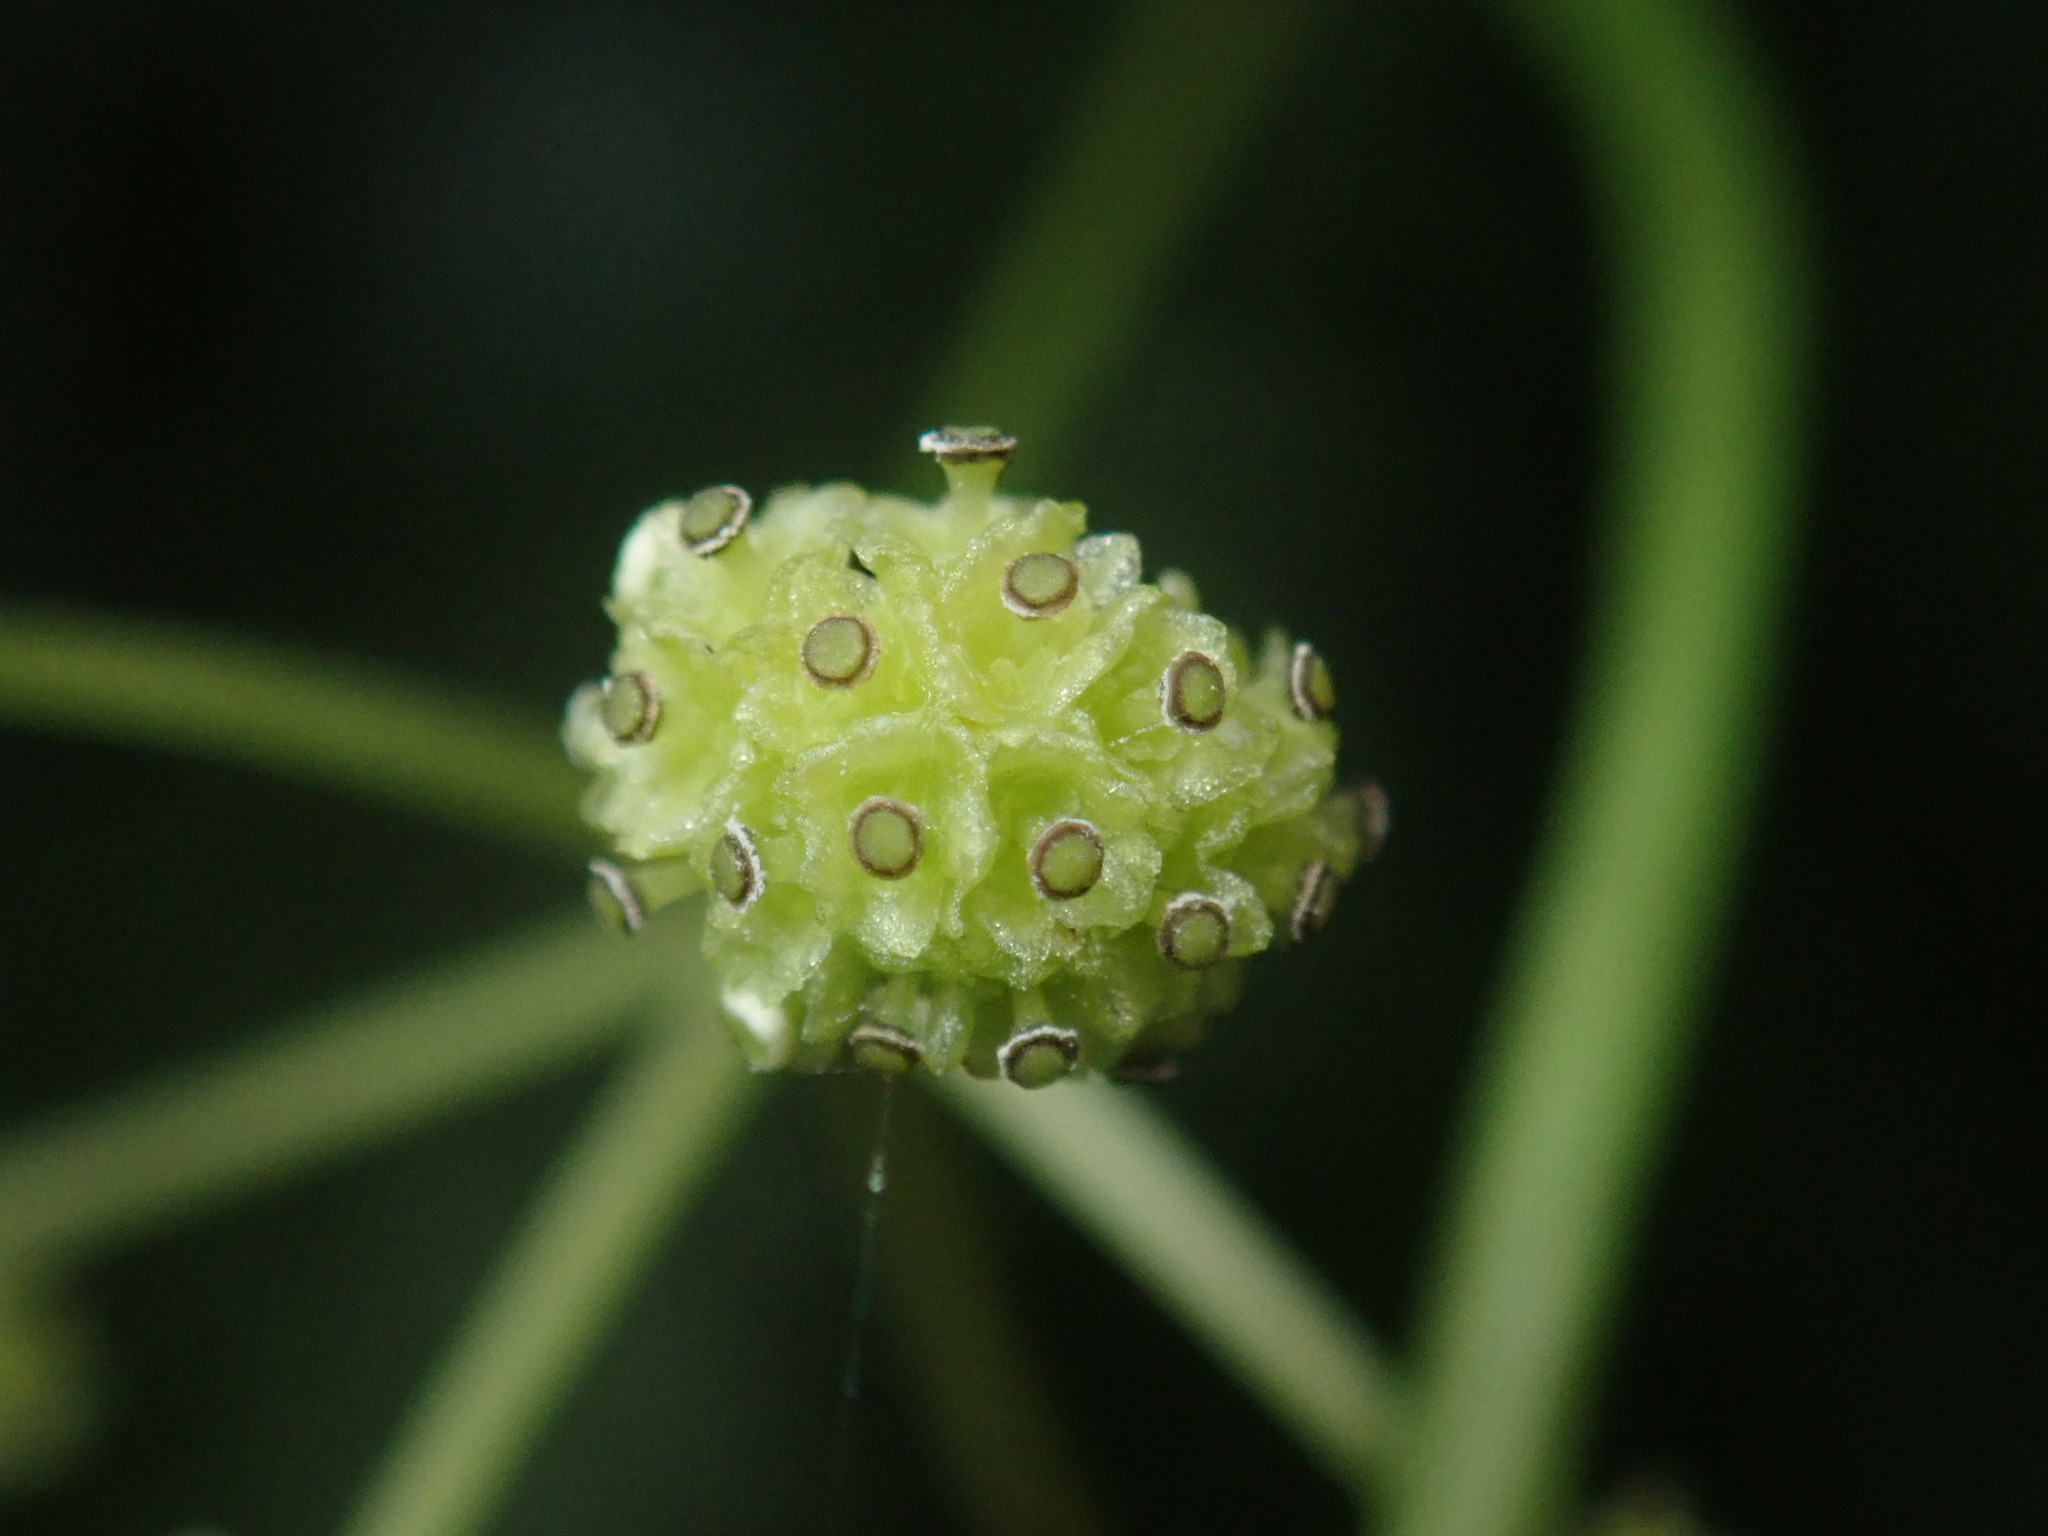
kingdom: Plantae
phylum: Tracheophyta
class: Magnoliopsida
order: Ranunculales
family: Menispermaceae
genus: Stephania
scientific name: Stephania longa
